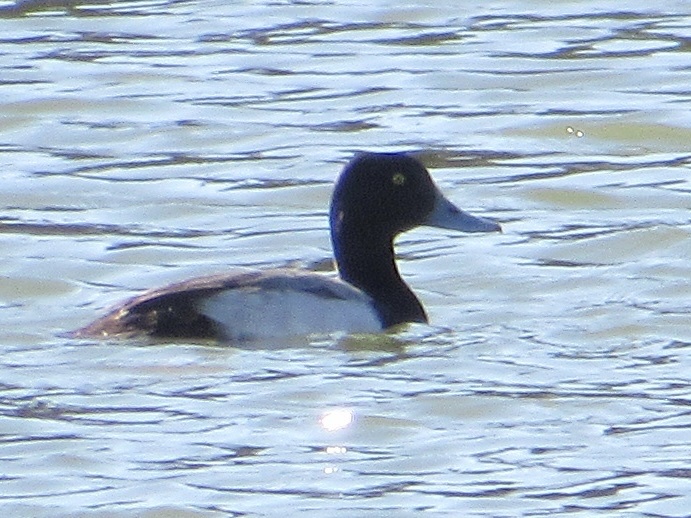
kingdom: Animalia
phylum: Chordata
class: Aves
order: Anseriformes
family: Anatidae
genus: Aythya
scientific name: Aythya affinis
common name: Lesser scaup
